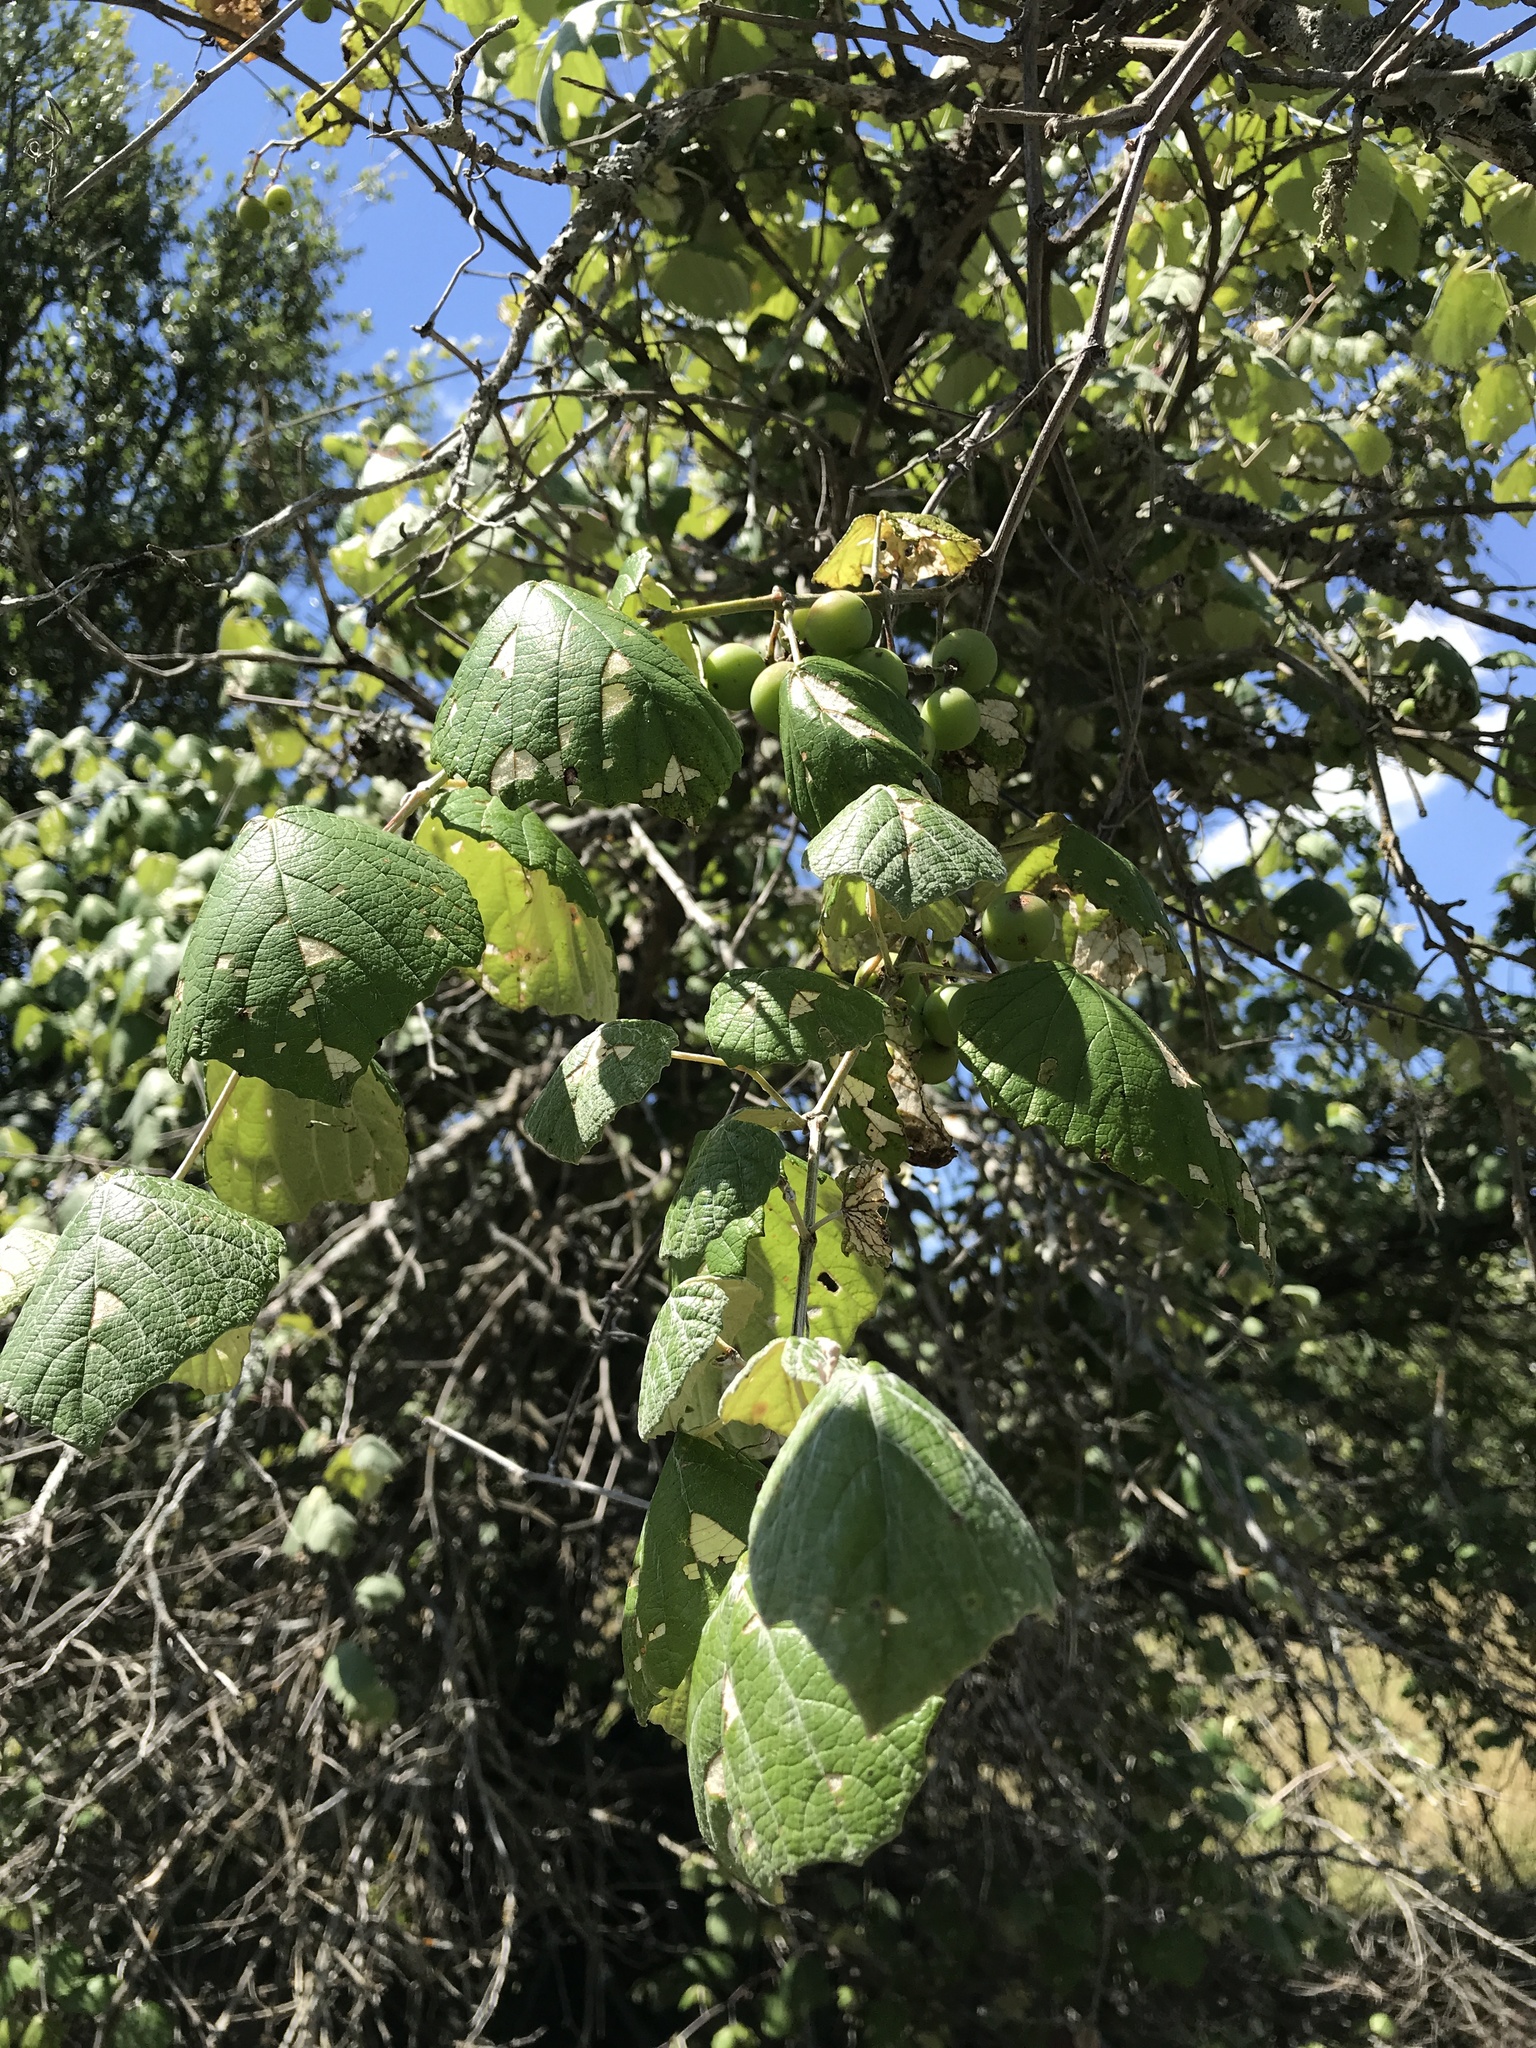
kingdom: Plantae
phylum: Tracheophyta
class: Magnoliopsida
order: Vitales
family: Vitaceae
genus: Vitis
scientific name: Vitis mustangensis
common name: Mustang grape
